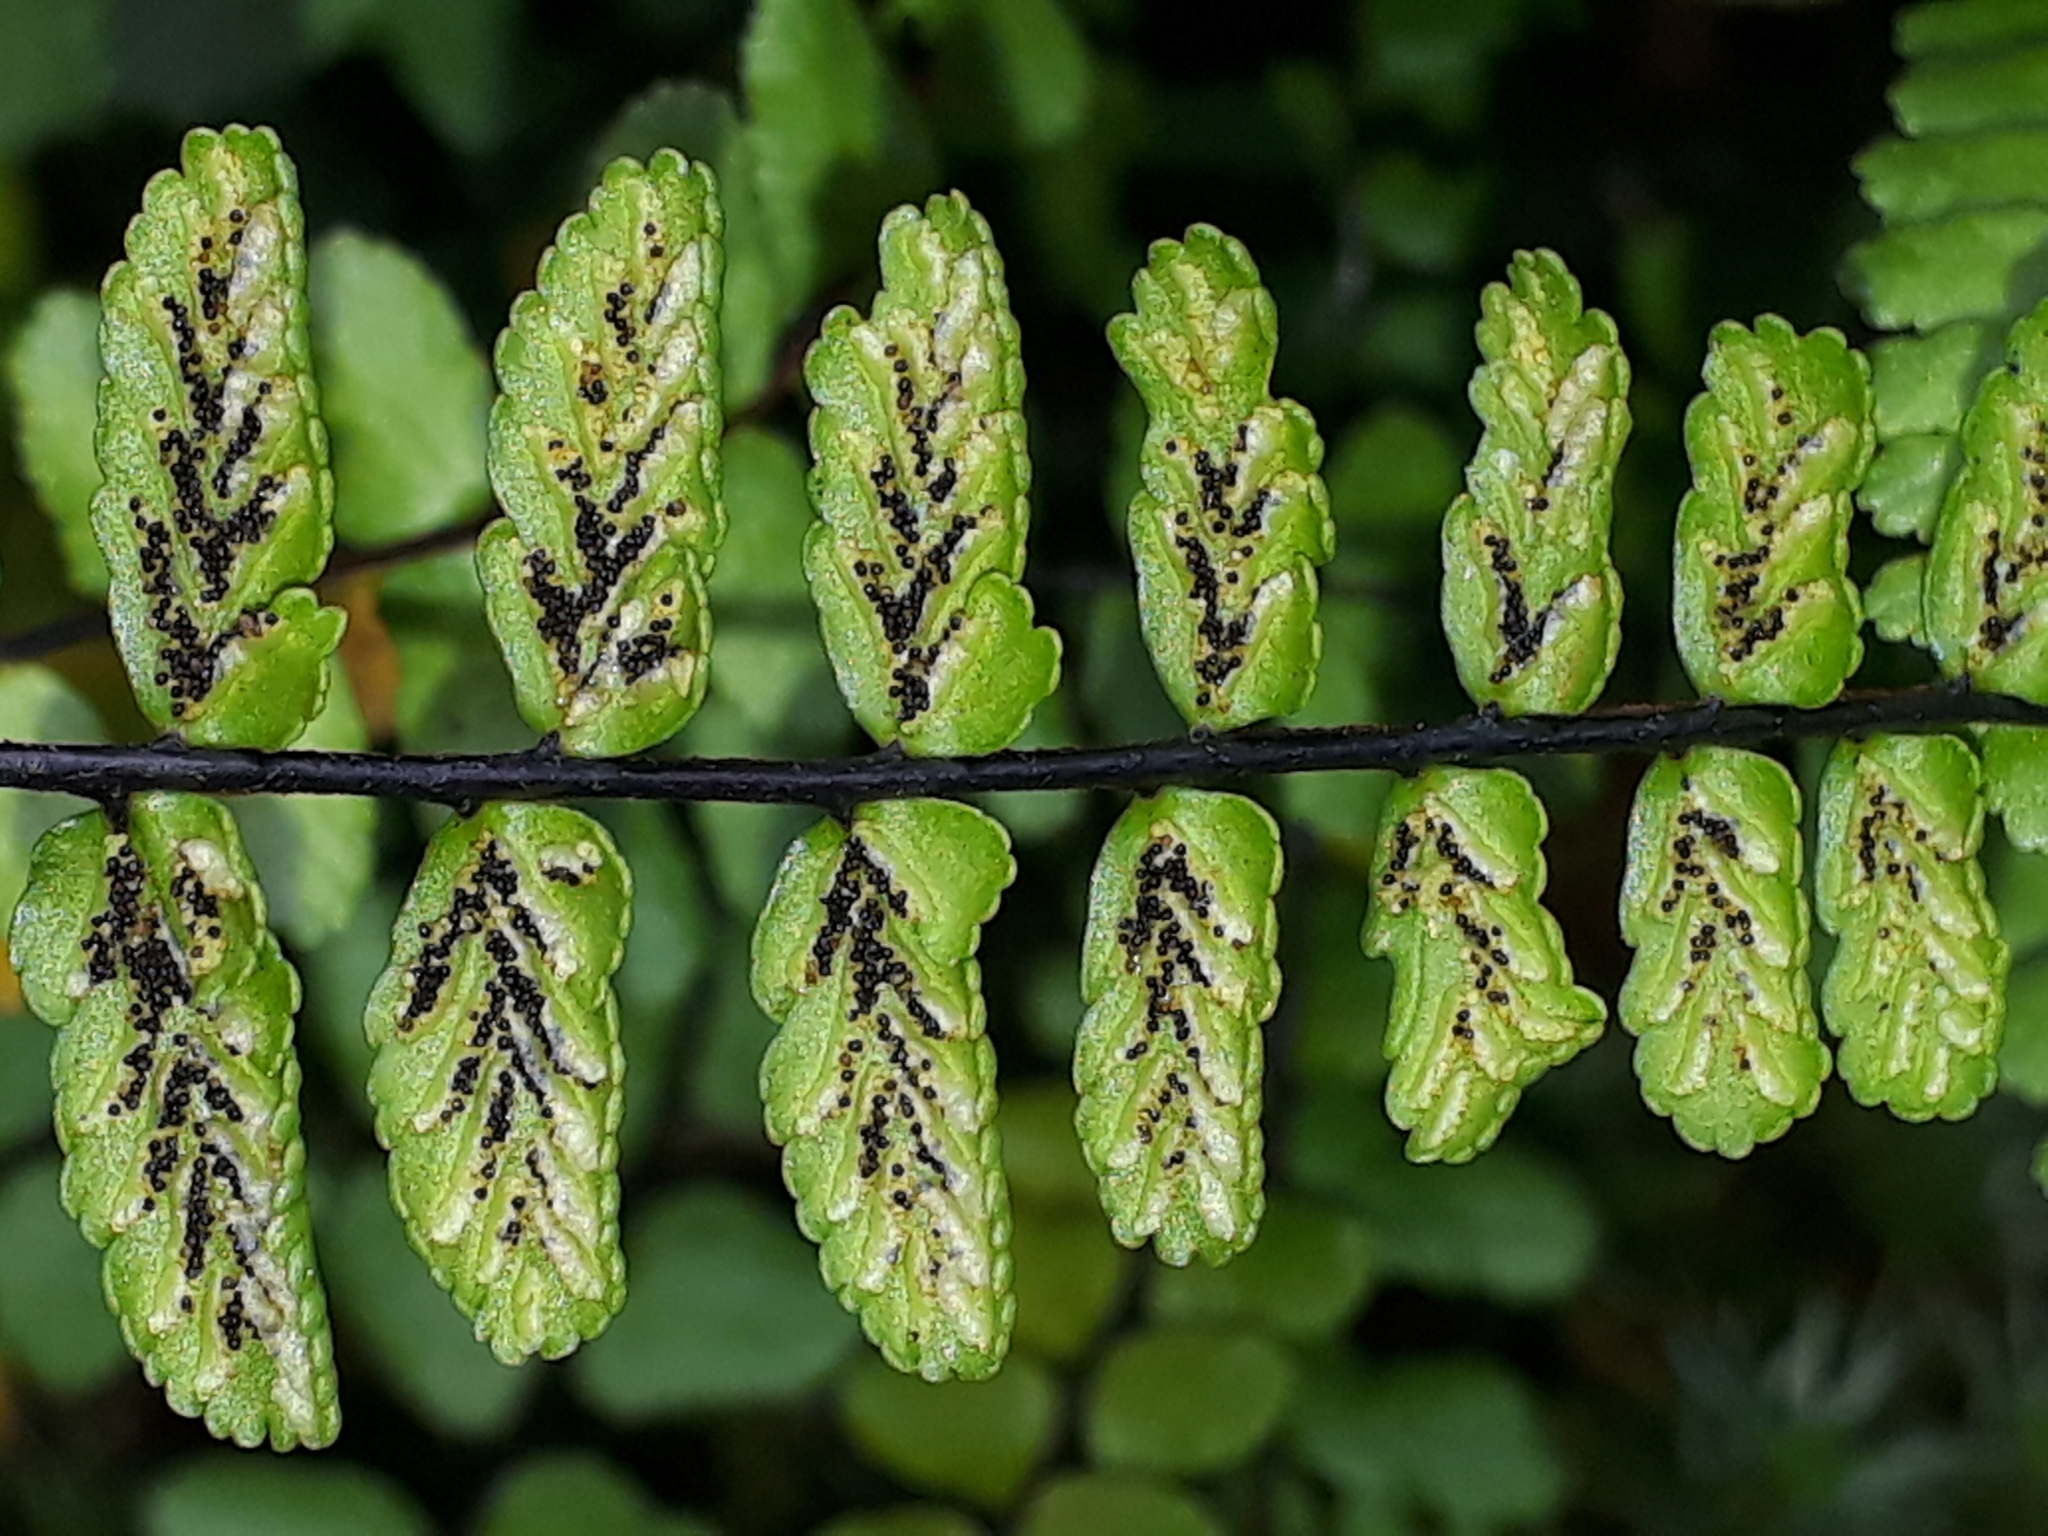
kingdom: Plantae
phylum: Tracheophyta
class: Polypodiopsida
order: Polypodiales
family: Aspleniaceae
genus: Asplenium
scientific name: Asplenium trichomanes
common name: Maidenhair spleenwort
